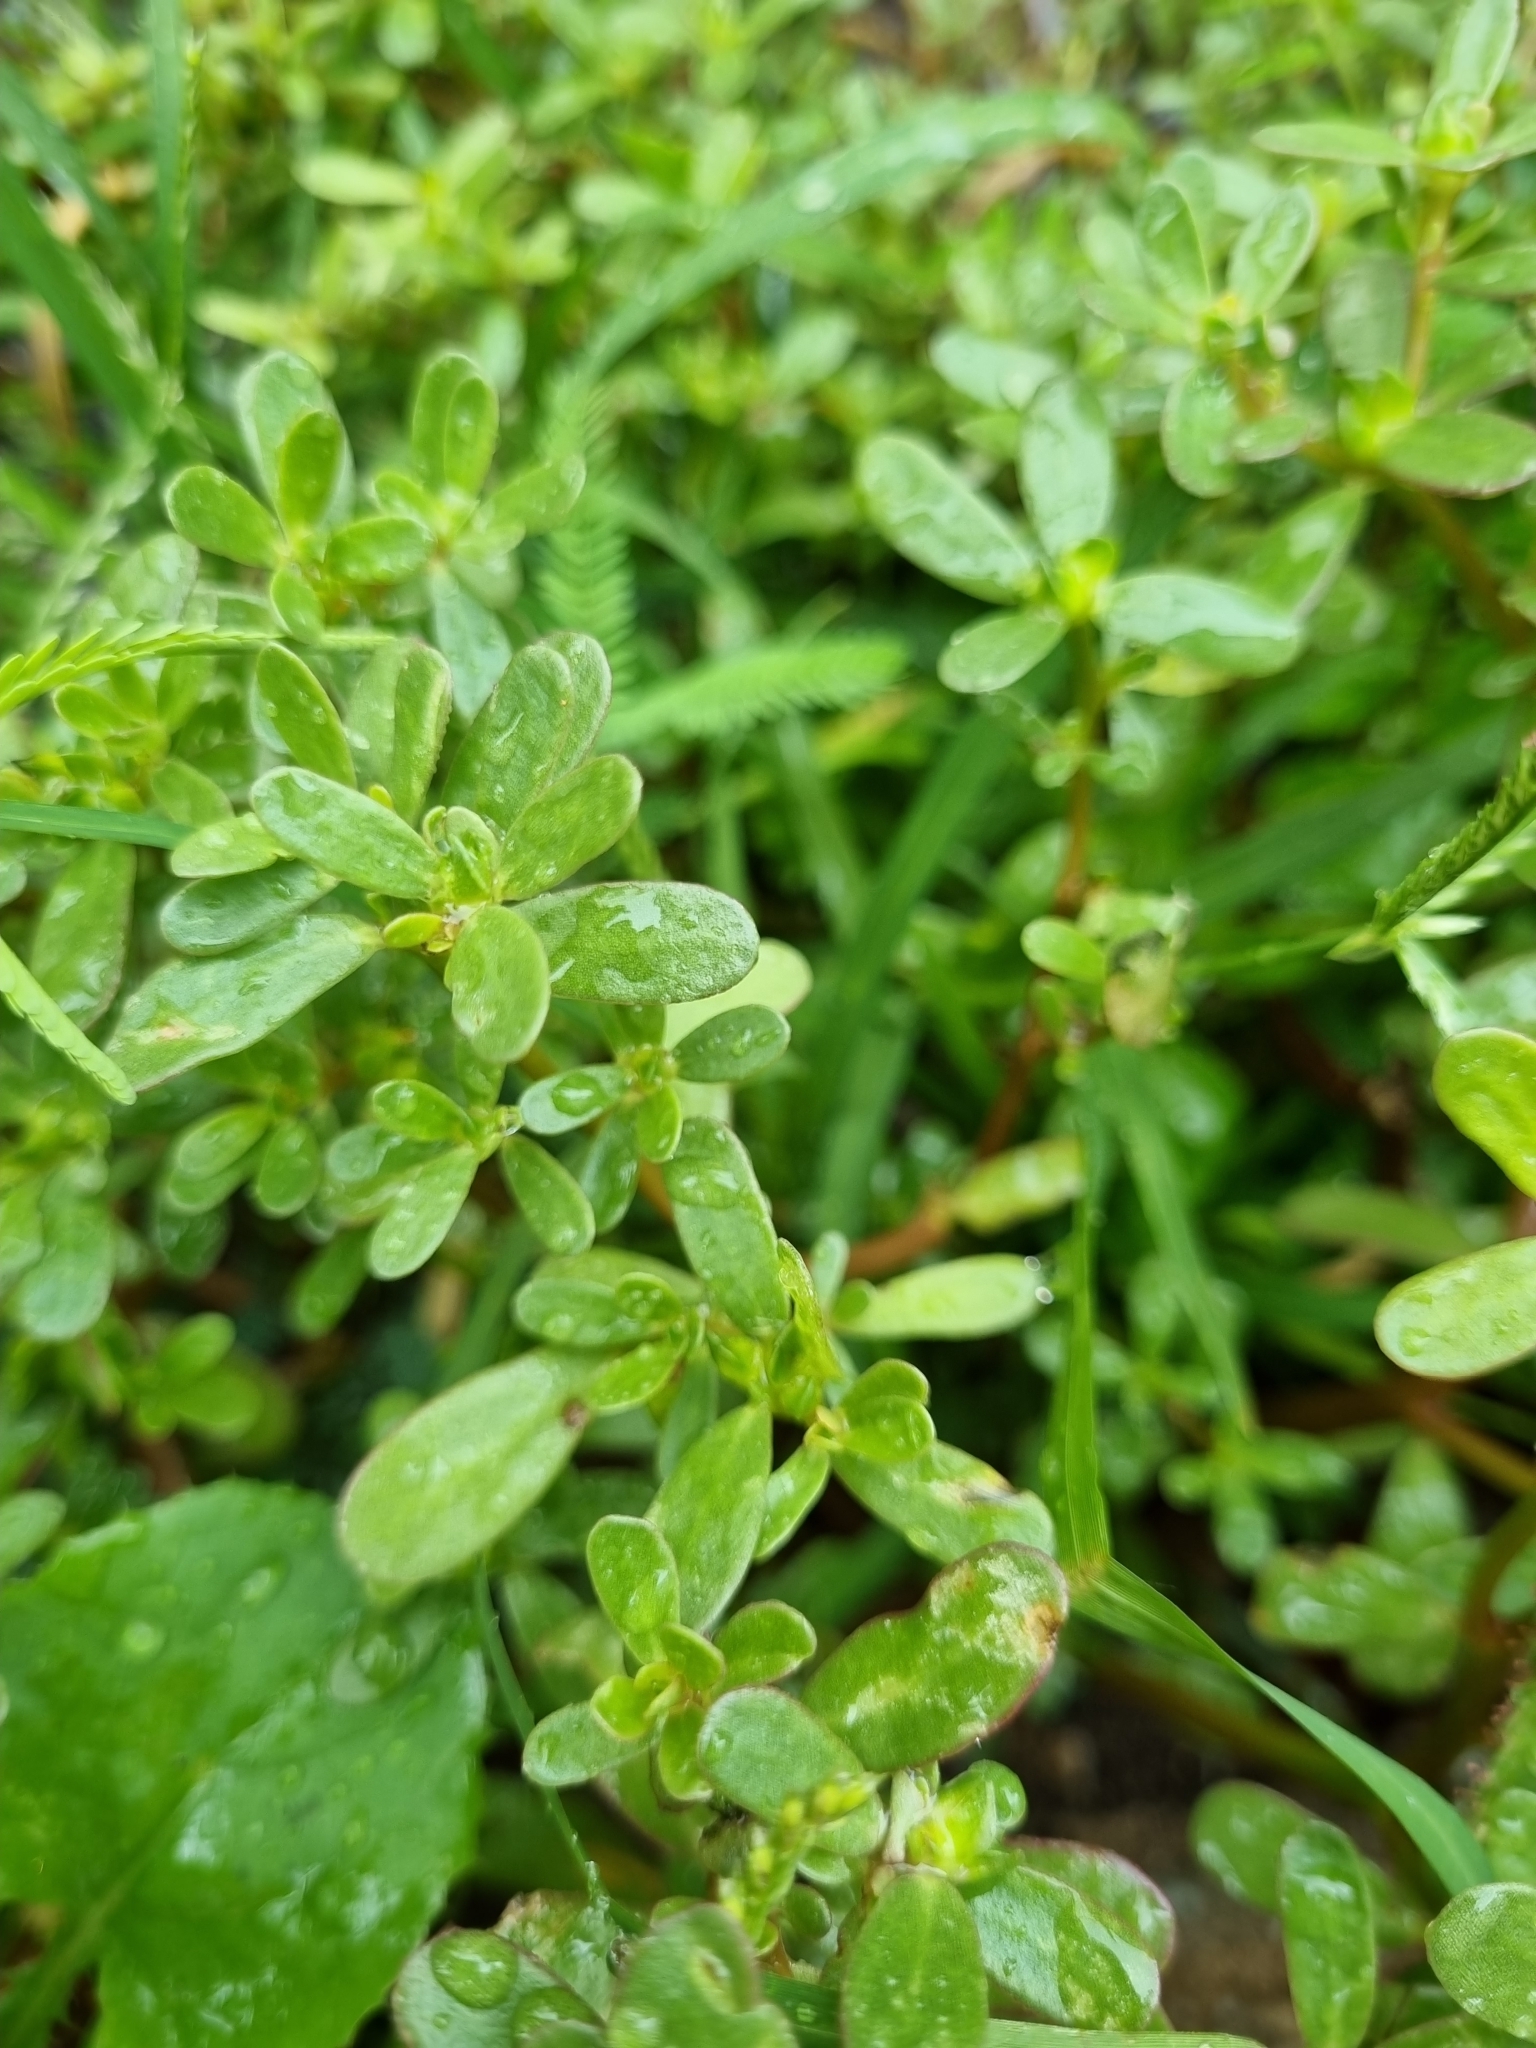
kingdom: Plantae
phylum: Tracheophyta
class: Magnoliopsida
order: Caryophyllales
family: Portulacaceae
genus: Portulaca
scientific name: Portulaca oleracea
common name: Common purslane
